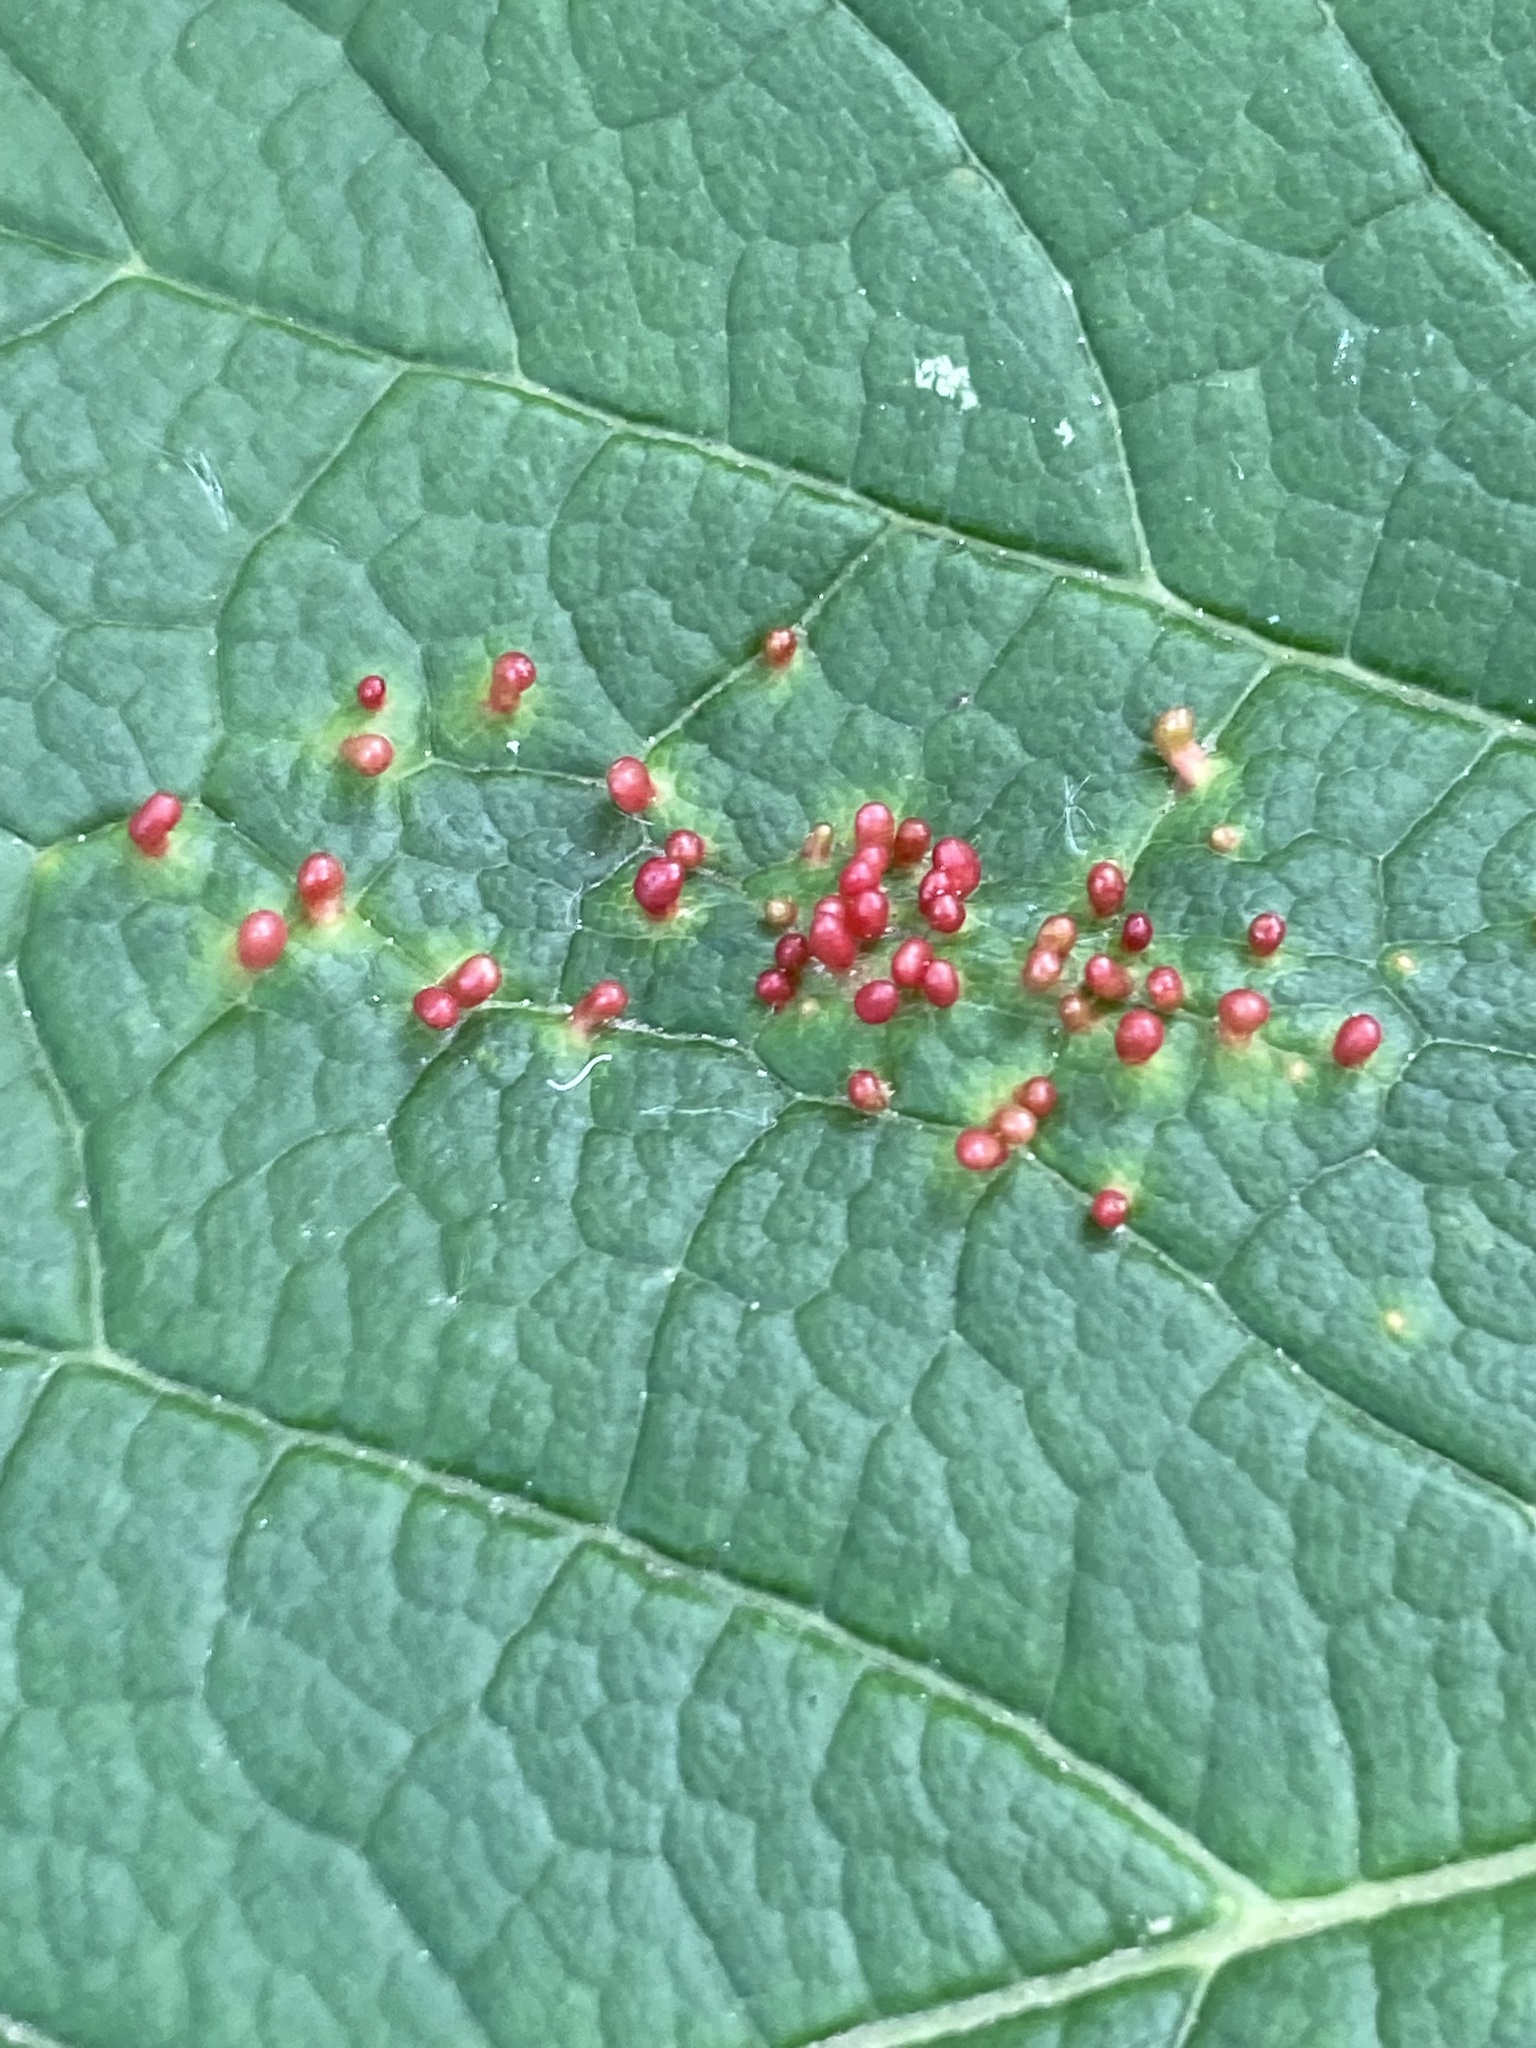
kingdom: Animalia
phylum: Arthropoda
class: Arachnida
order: Trombidiformes
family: Eriophyidae
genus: Aceria
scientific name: Aceria cephaloneus
